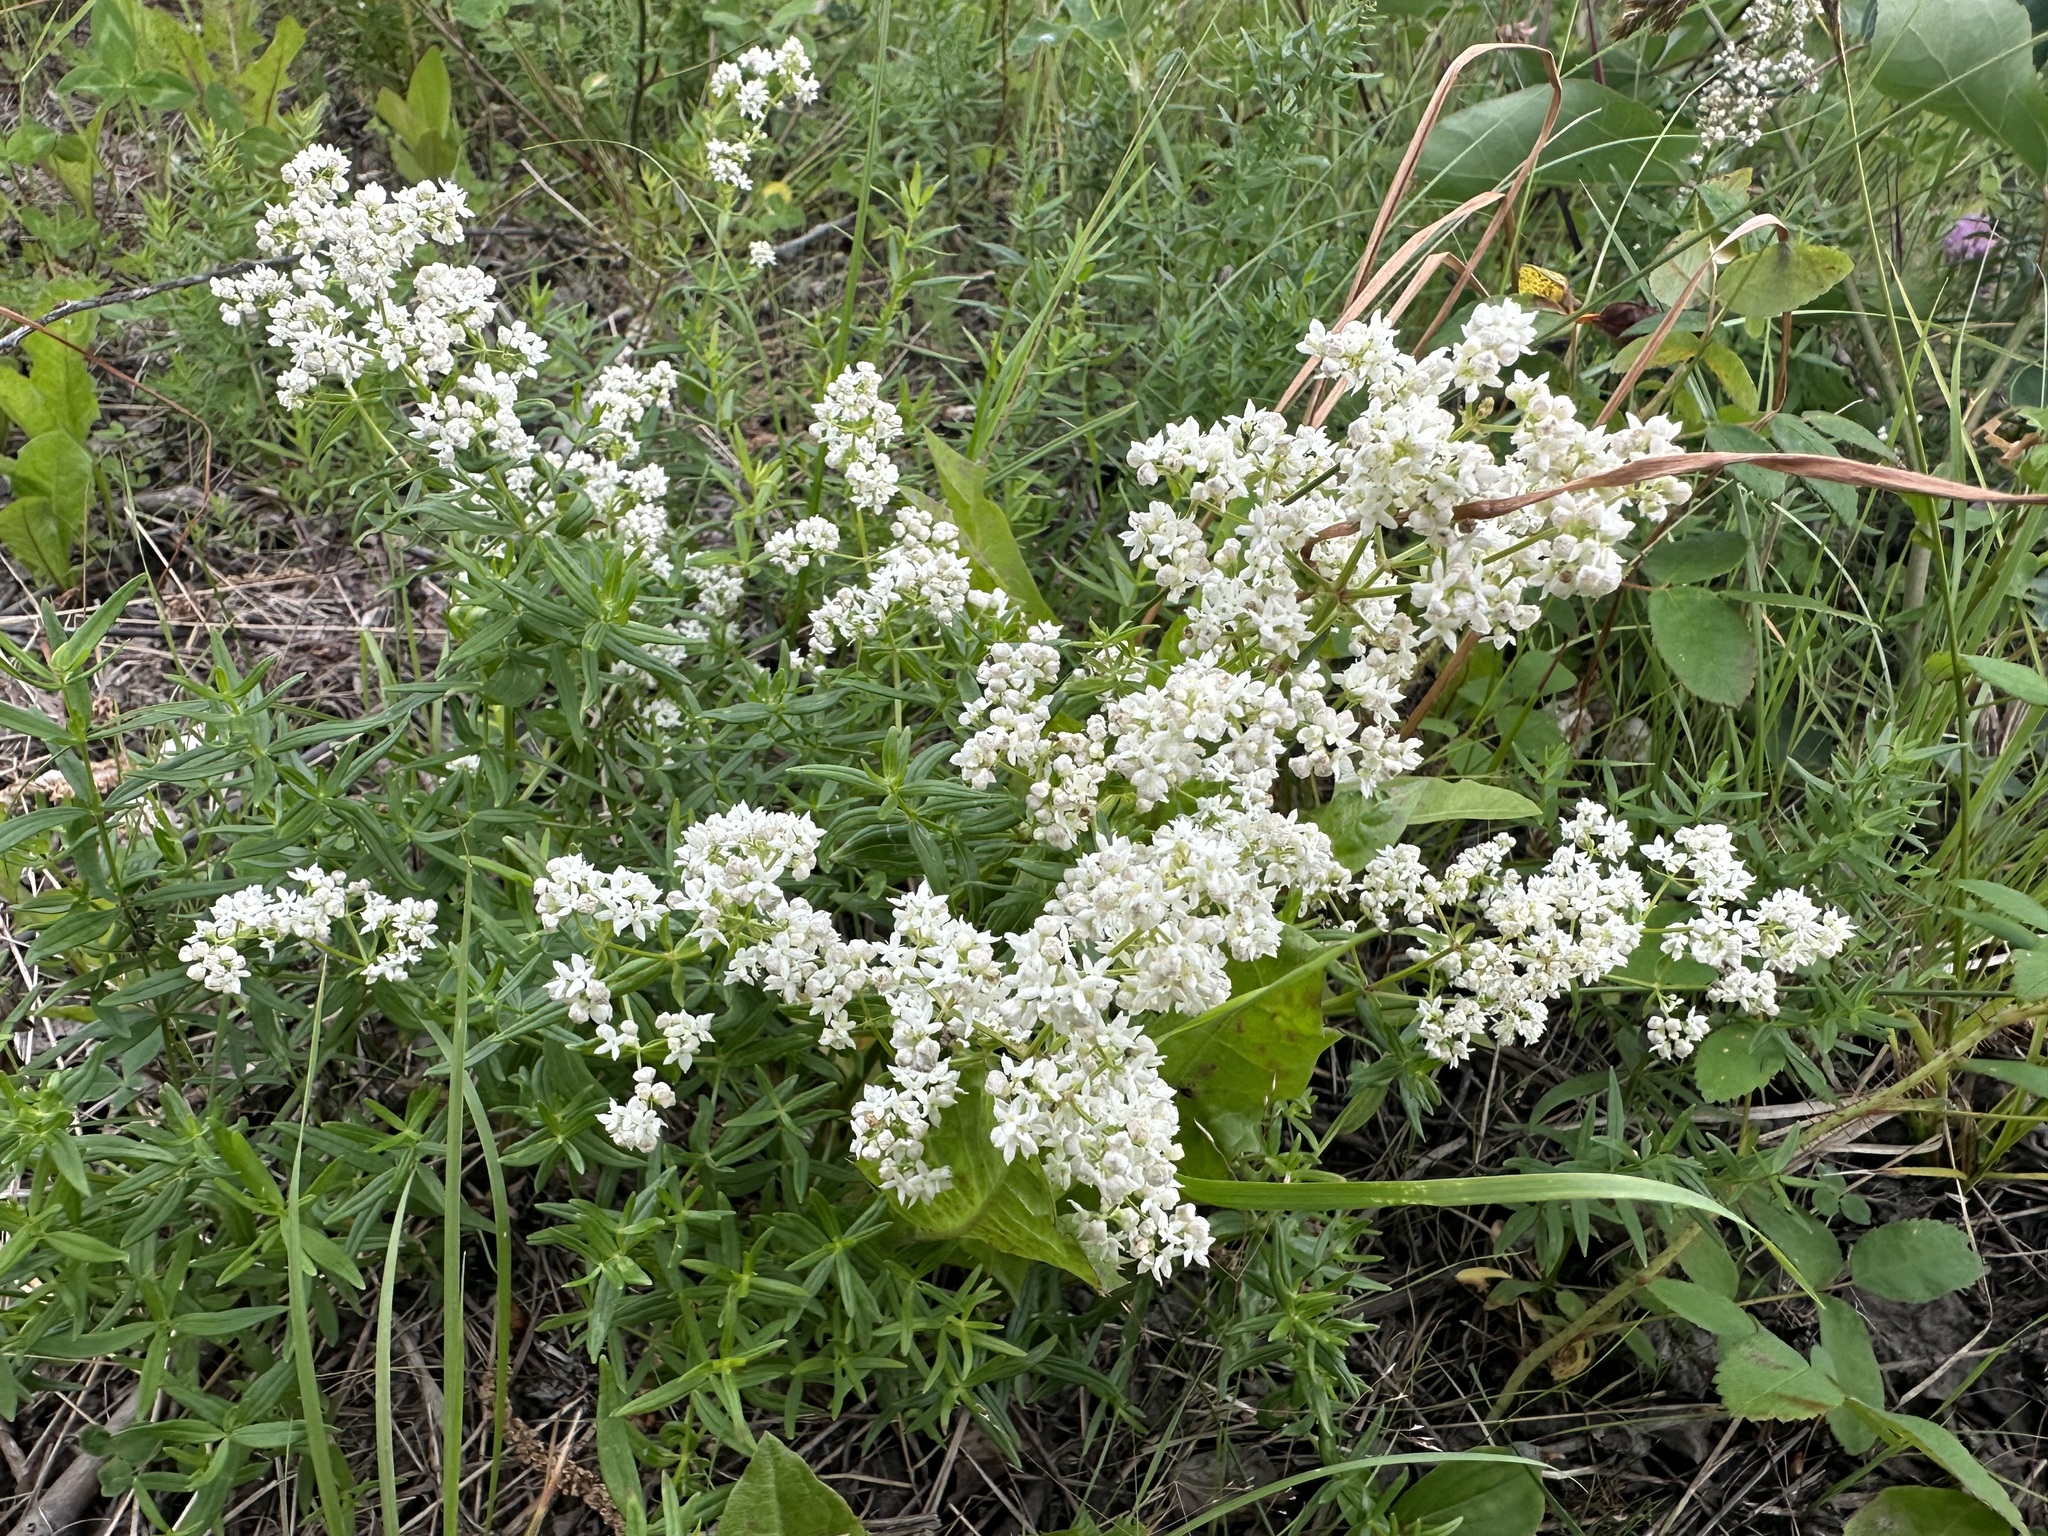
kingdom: Plantae
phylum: Tracheophyta
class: Magnoliopsida
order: Gentianales
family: Rubiaceae
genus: Galium
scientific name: Galium boreale
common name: Northern bedstraw
